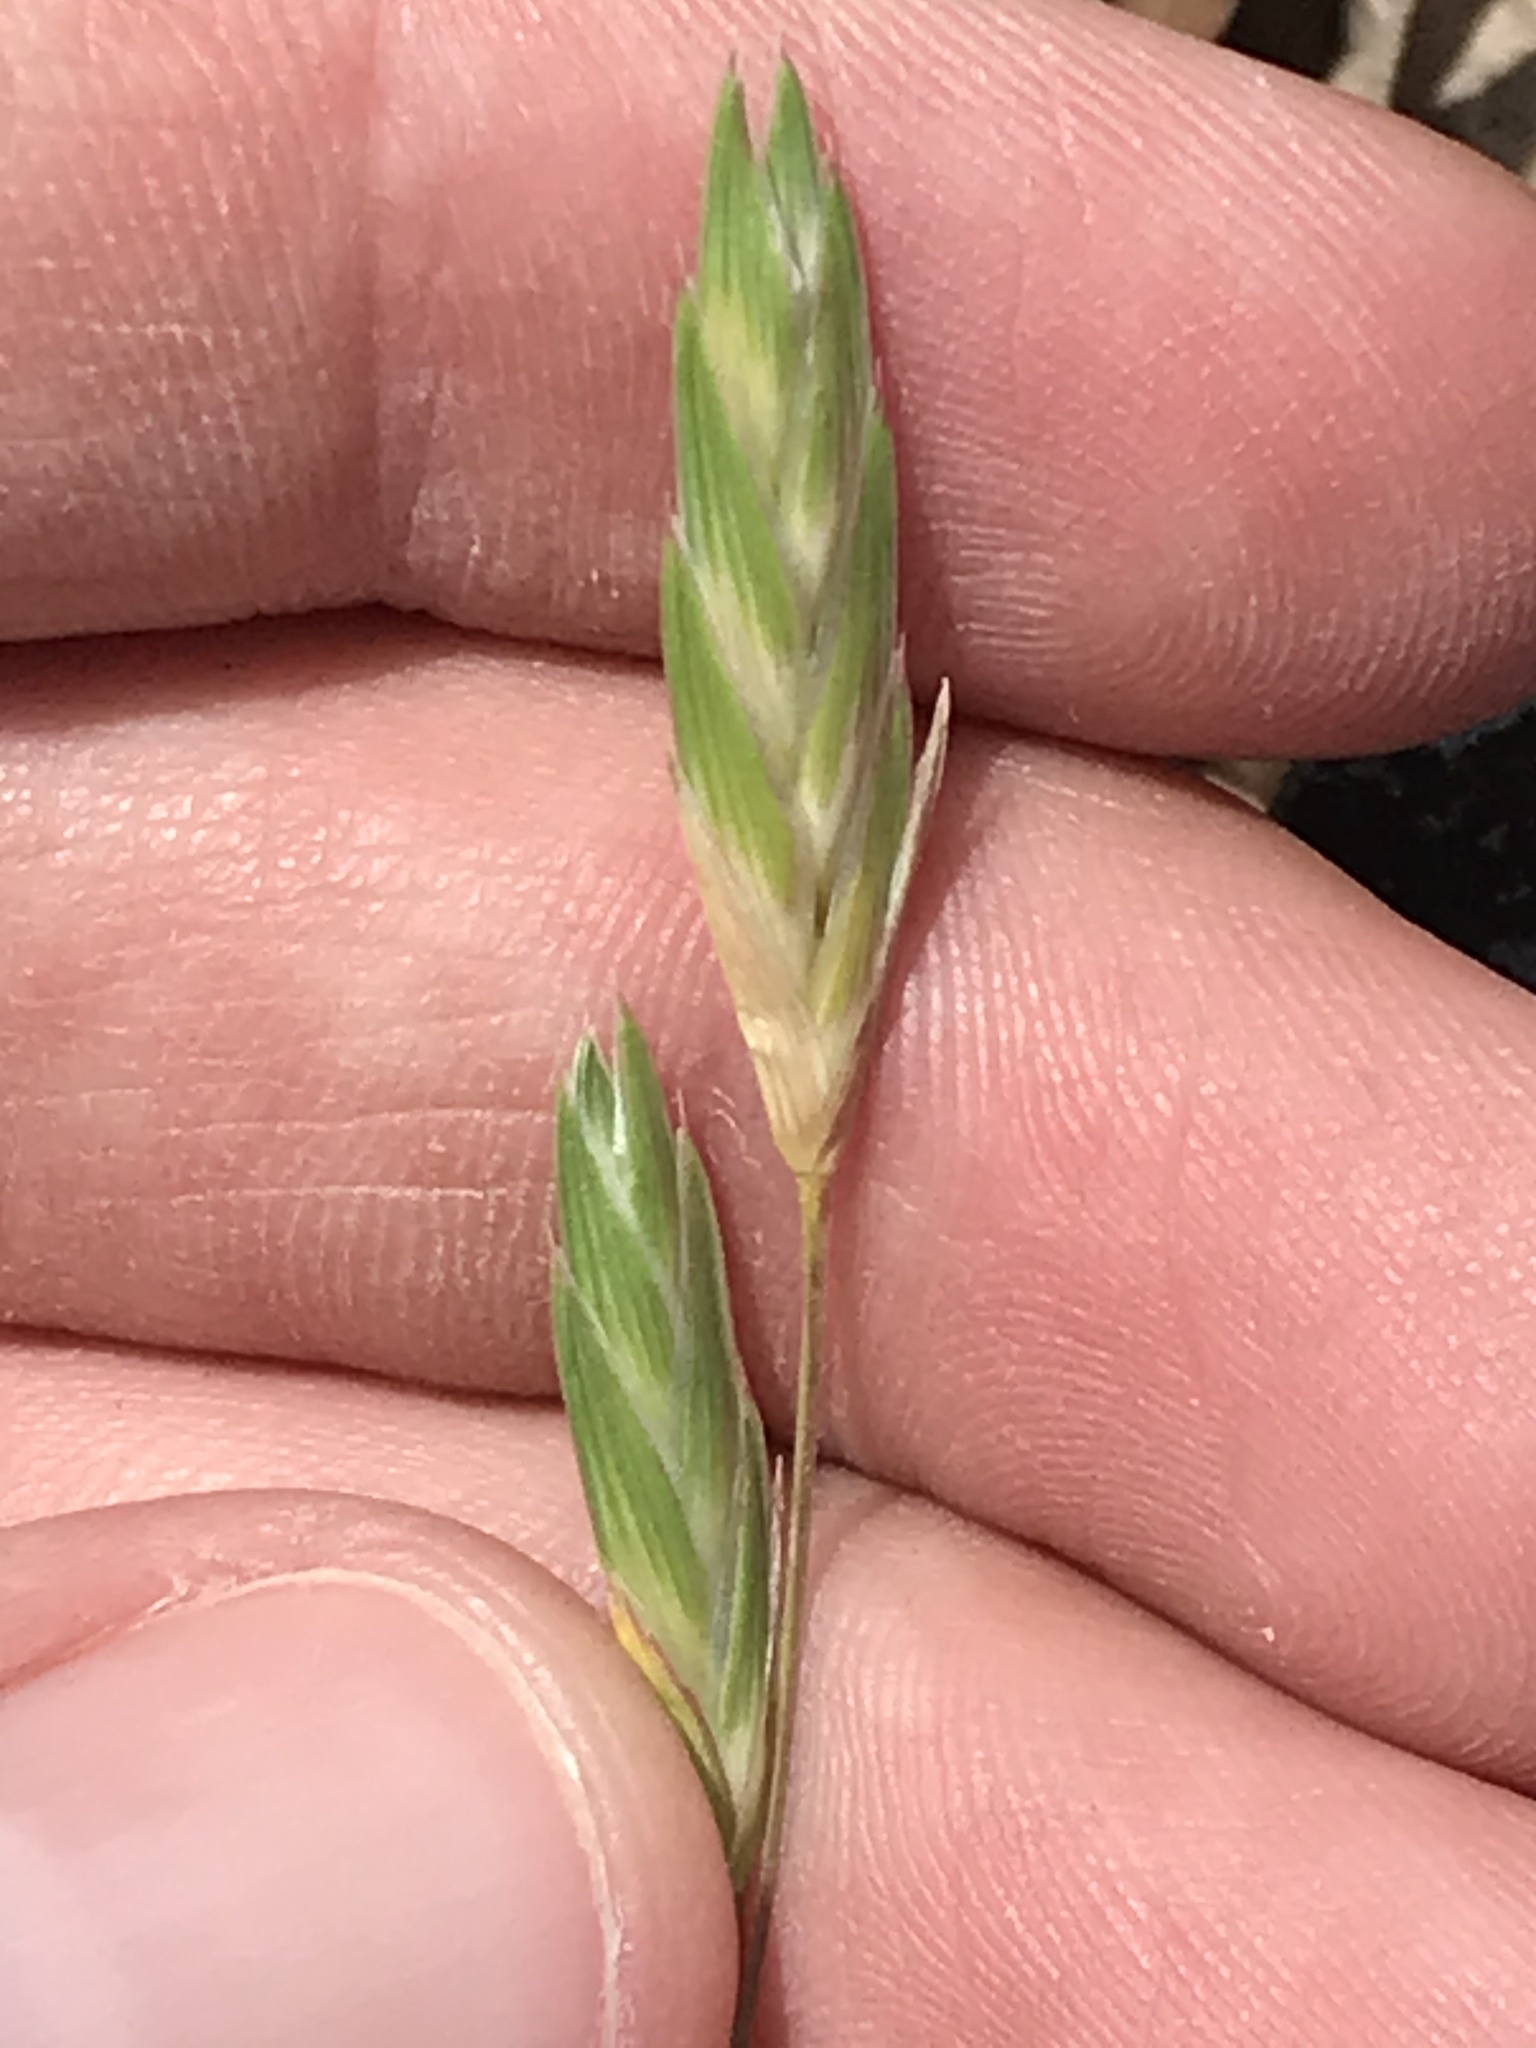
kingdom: Plantae
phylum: Tracheophyta
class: Liliopsida
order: Poales
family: Poaceae
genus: Bromus
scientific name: Bromus catharticus
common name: Rescuegrass
